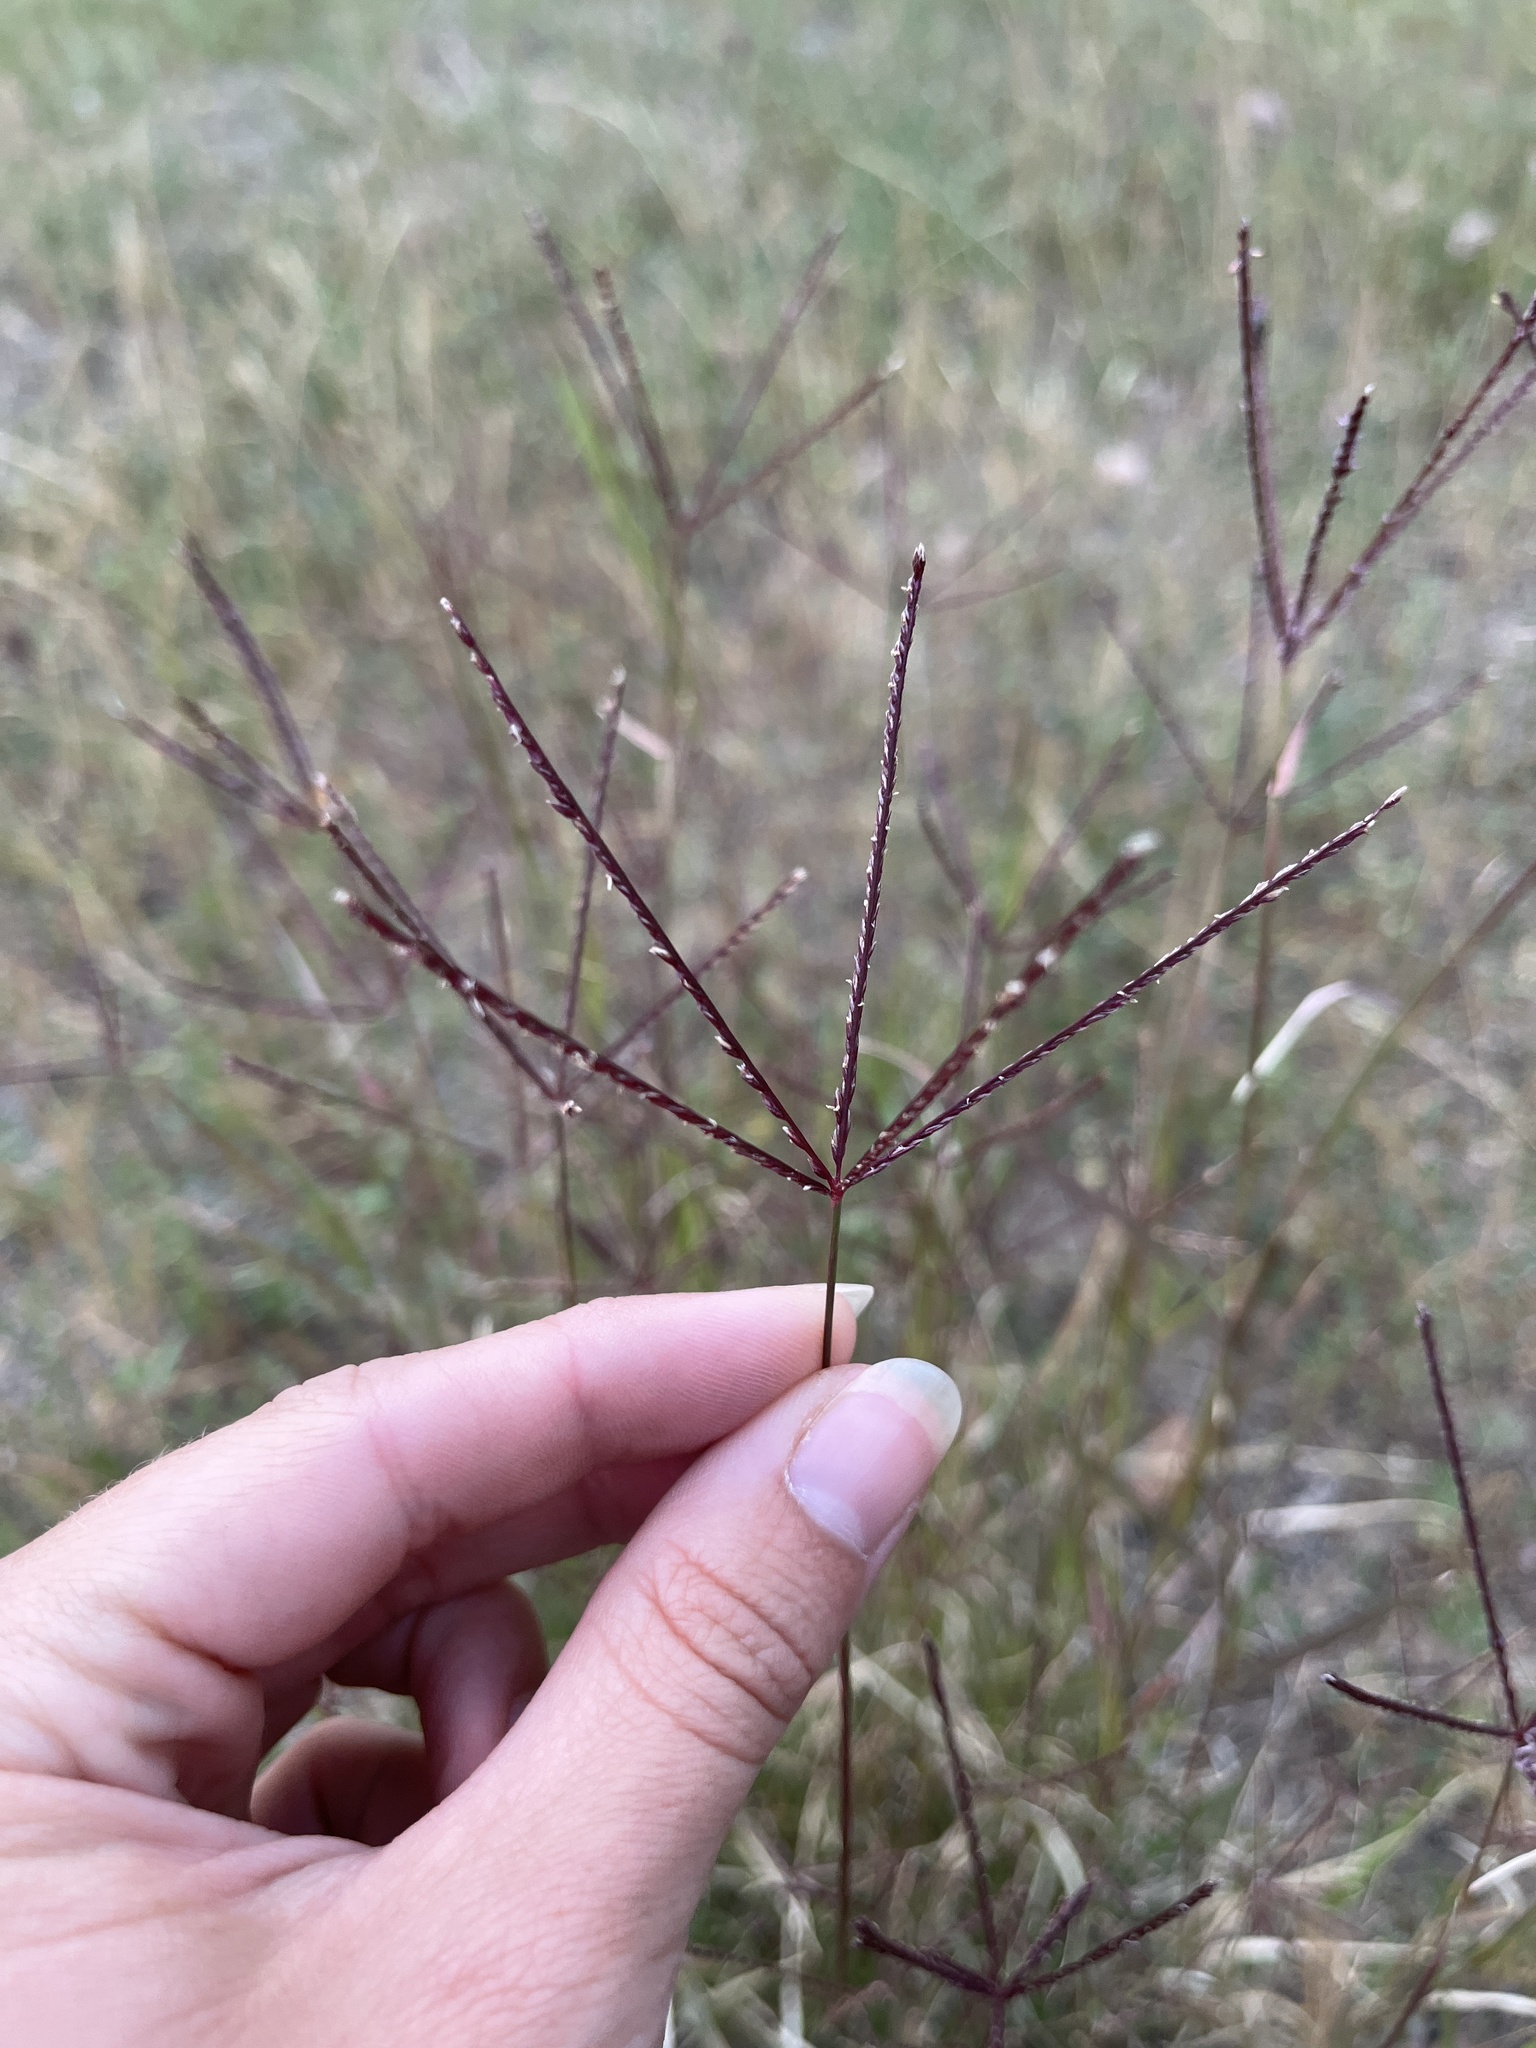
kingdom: Plantae
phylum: Tracheophyta
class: Liliopsida
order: Poales
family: Poaceae
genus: Cynodon
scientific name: Cynodon dactylon
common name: Bermuda grass
